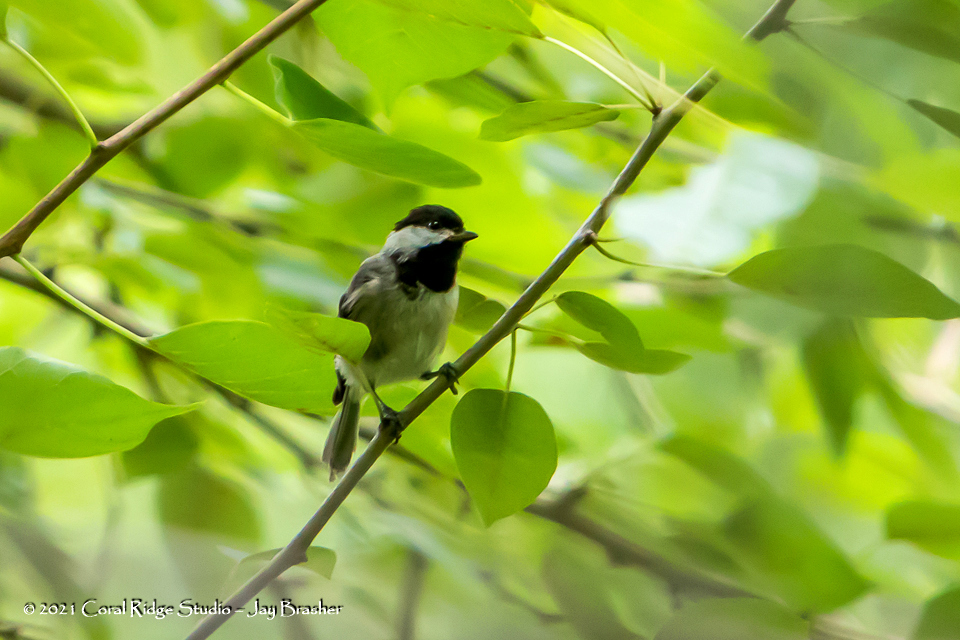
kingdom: Animalia
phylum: Chordata
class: Aves
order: Passeriformes
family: Paridae
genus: Poecile
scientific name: Poecile carolinensis
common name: Carolina chickadee
